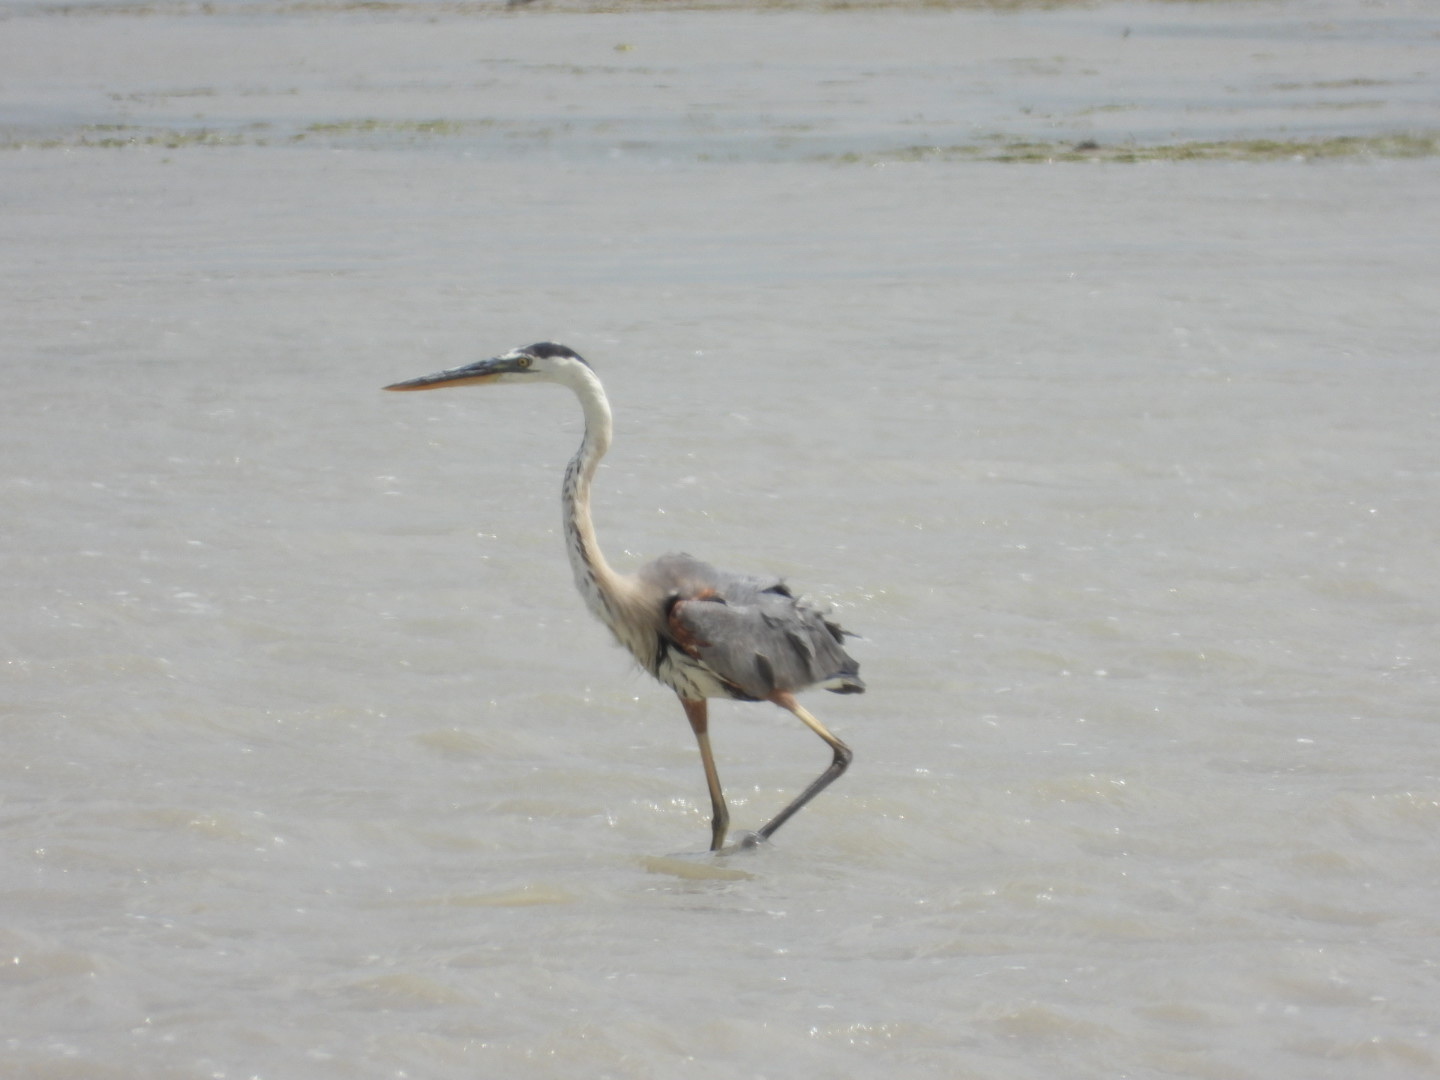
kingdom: Animalia
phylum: Chordata
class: Aves
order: Pelecaniformes
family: Ardeidae
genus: Ardea
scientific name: Ardea herodias
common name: Great blue heron
